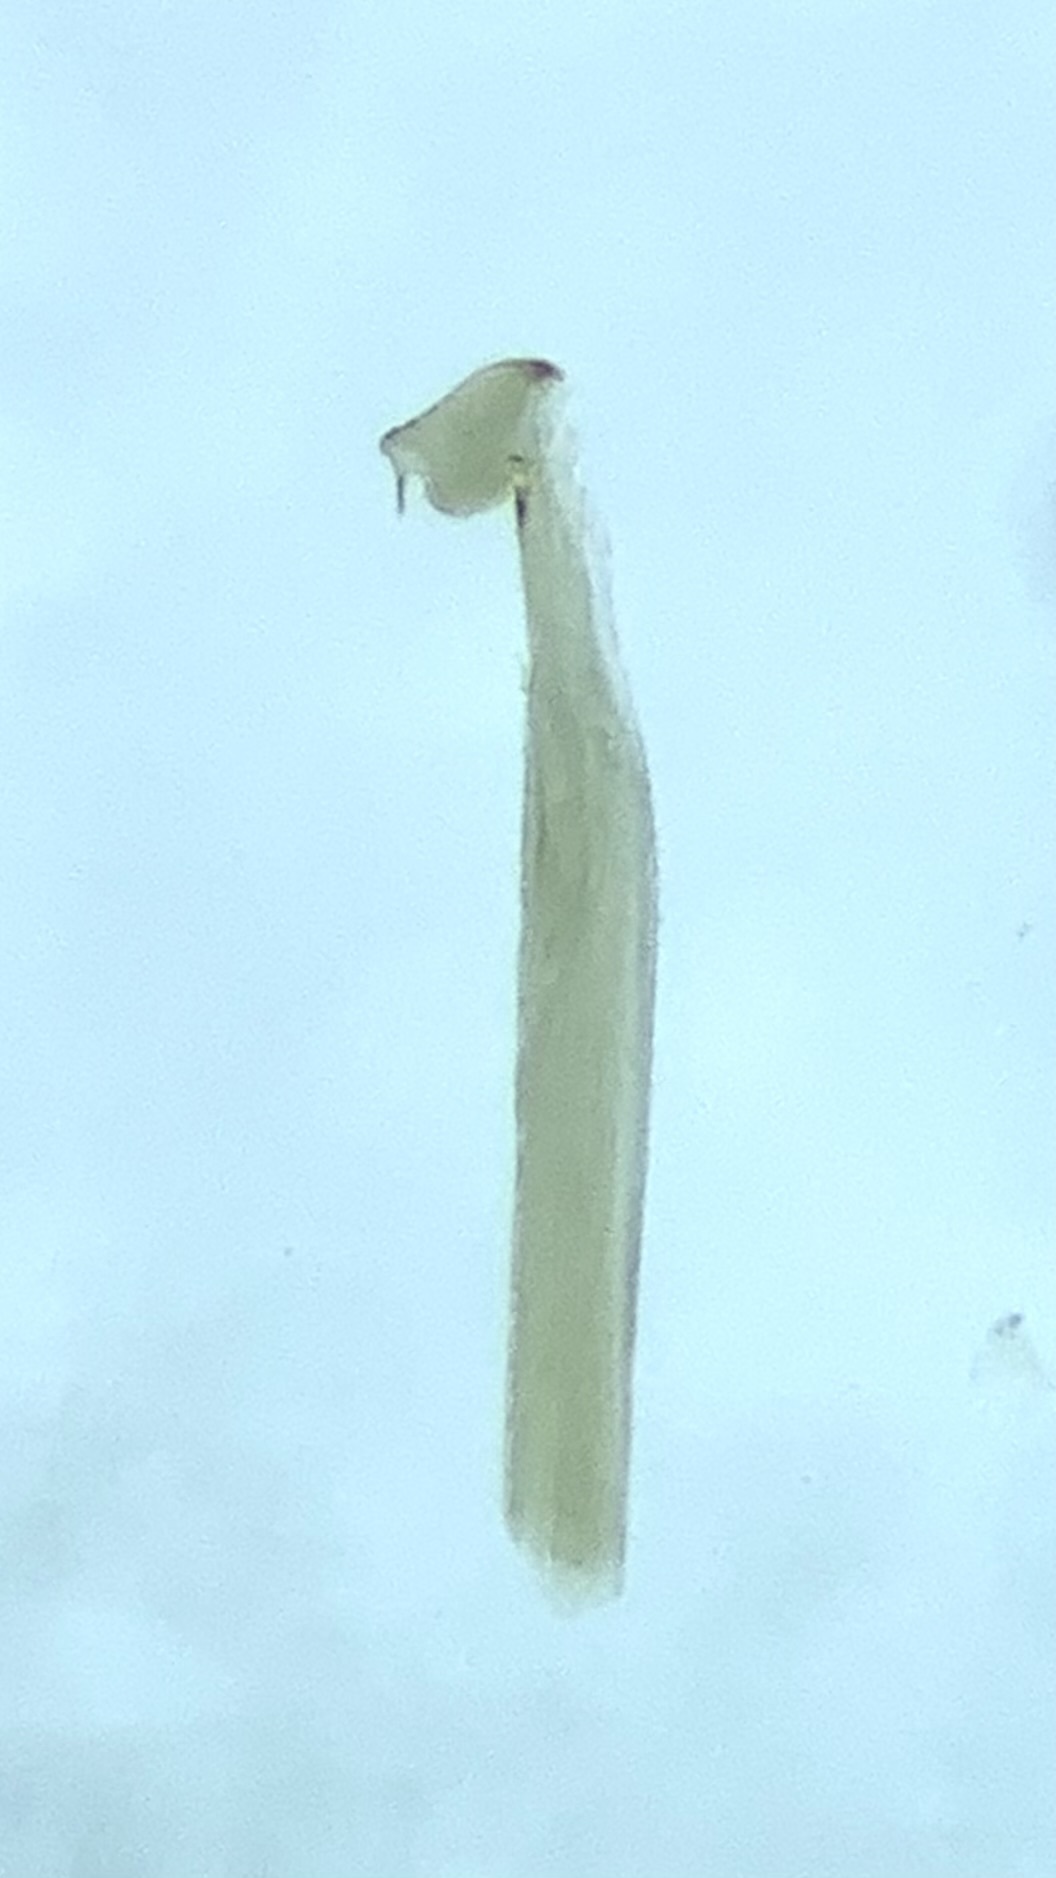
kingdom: Animalia
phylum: Arthropoda
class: Arachnida
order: Opiliones
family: Phalangiidae
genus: Dicranopalpus
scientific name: Dicranopalpus ramosus
